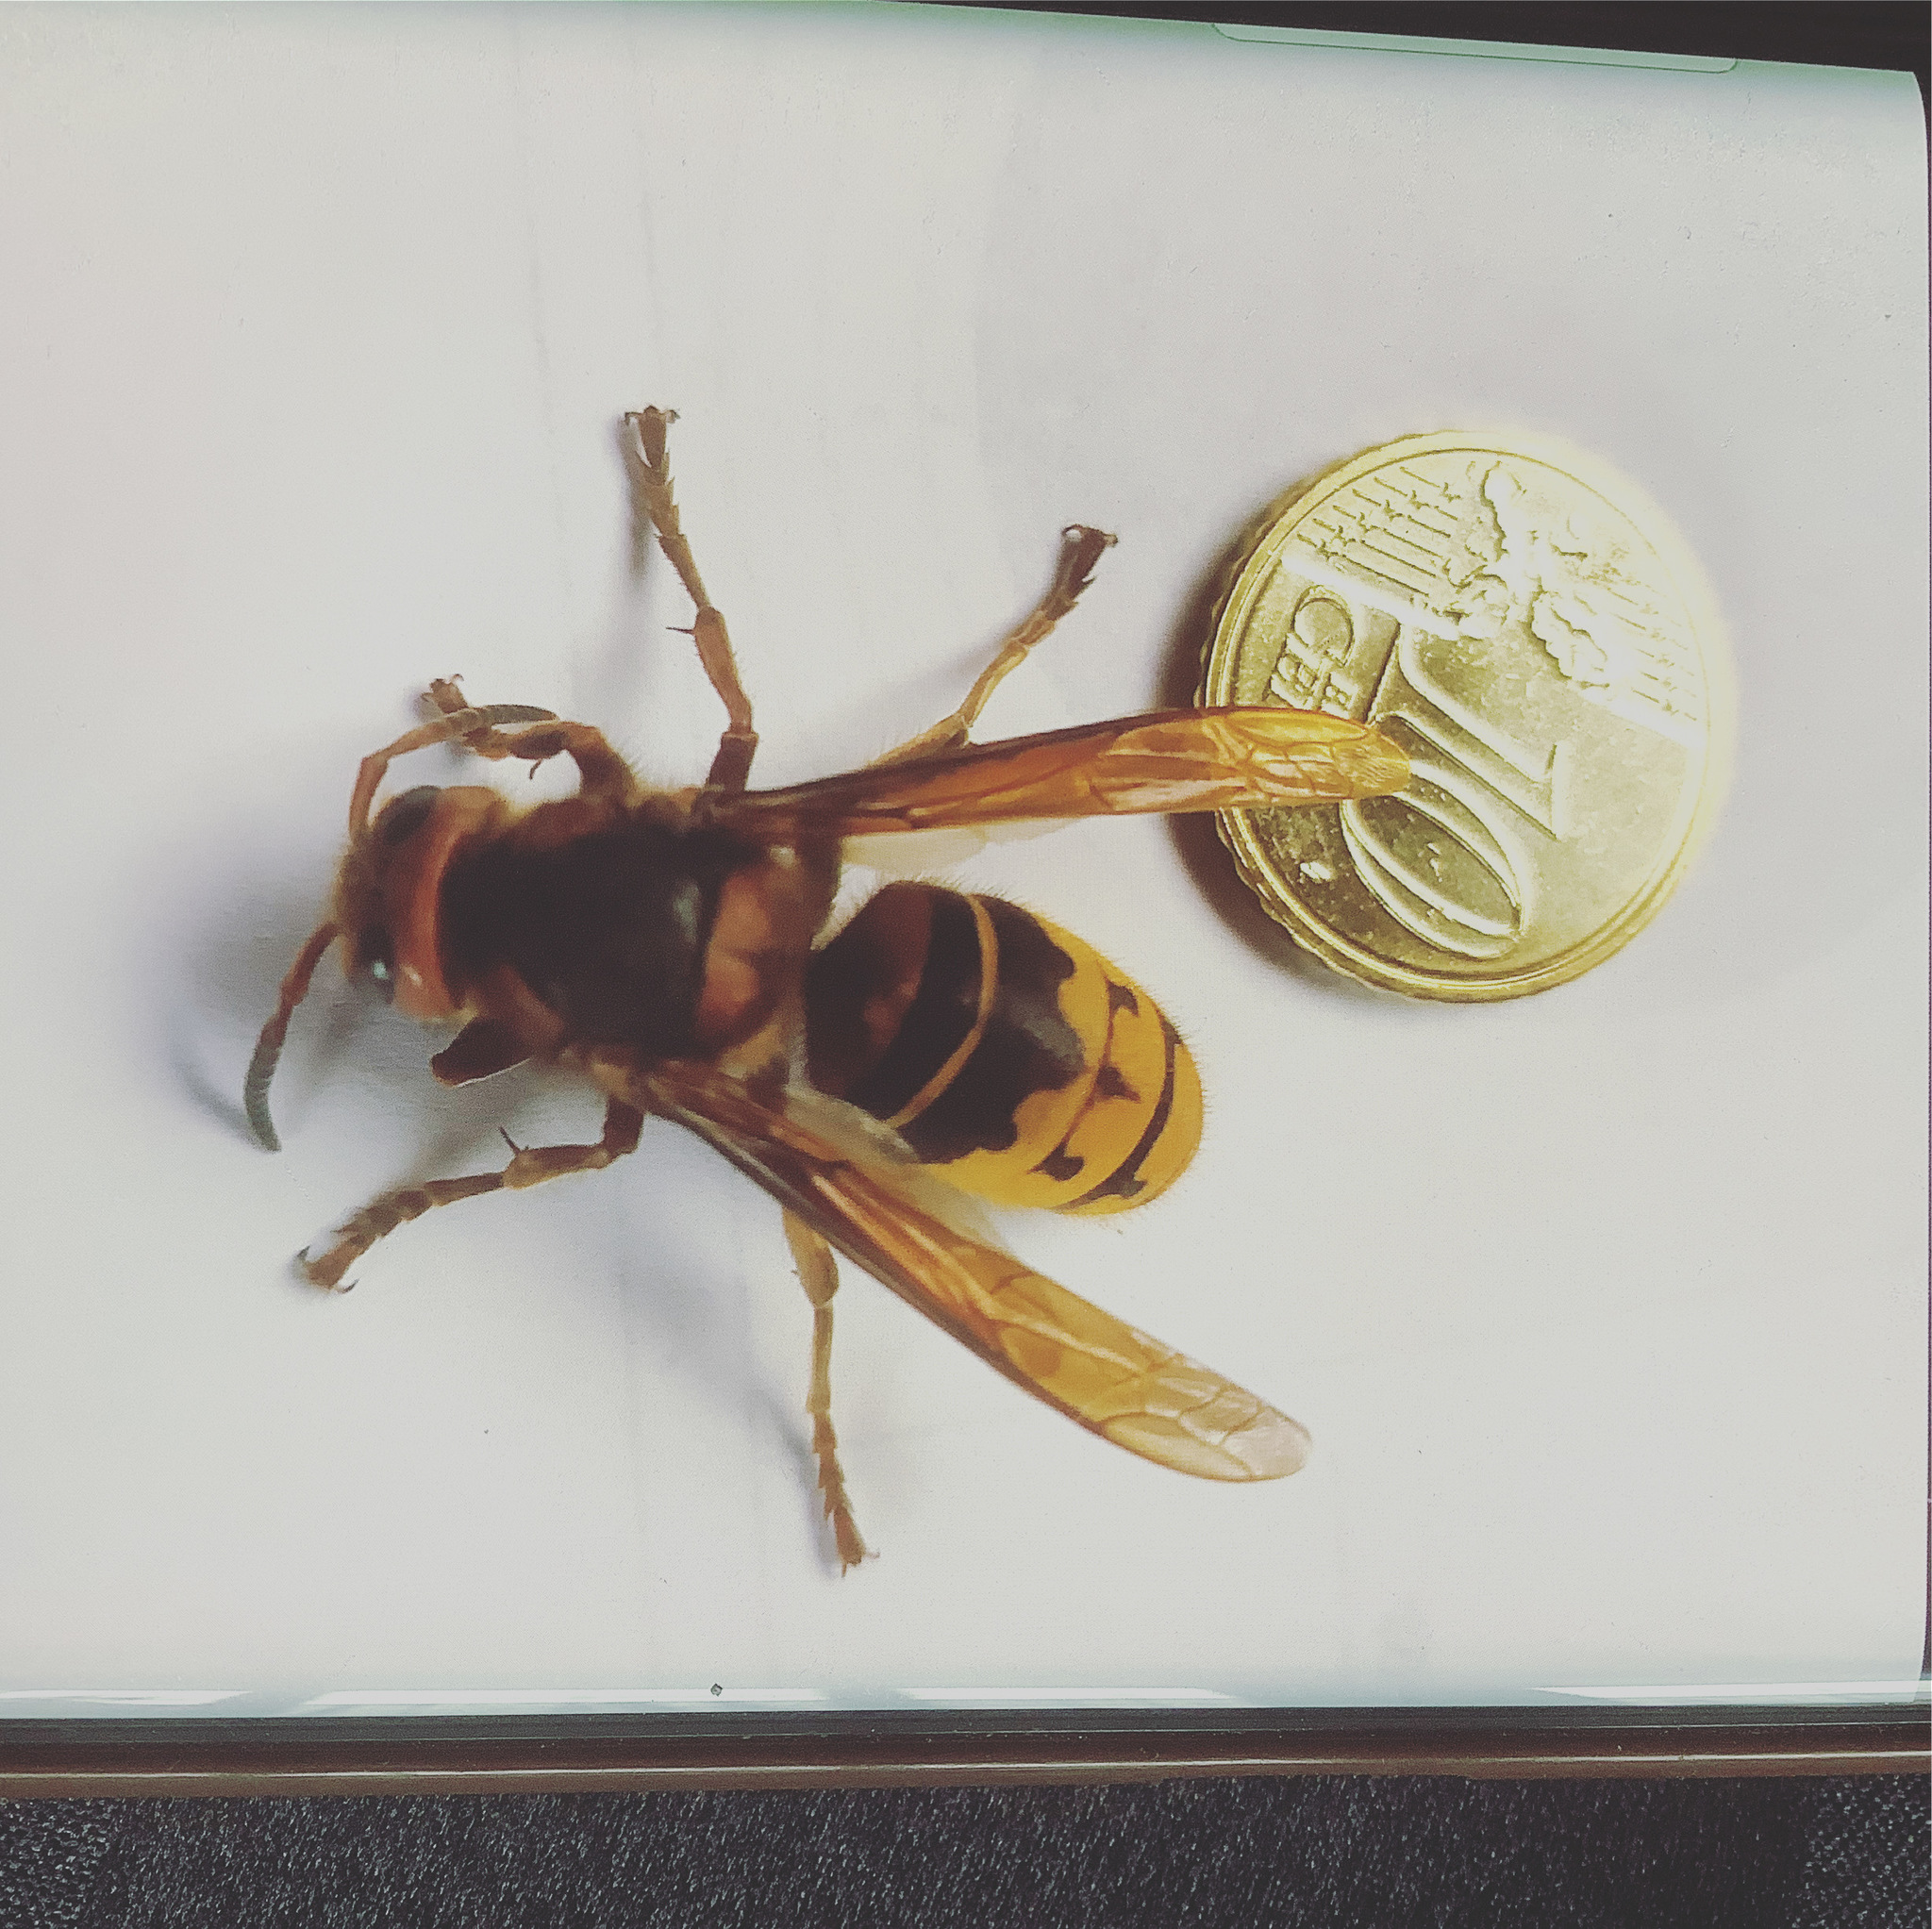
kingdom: Animalia
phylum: Arthropoda
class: Insecta
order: Hymenoptera
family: Vespidae
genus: Vespa
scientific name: Vespa crabro
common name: Hornet
